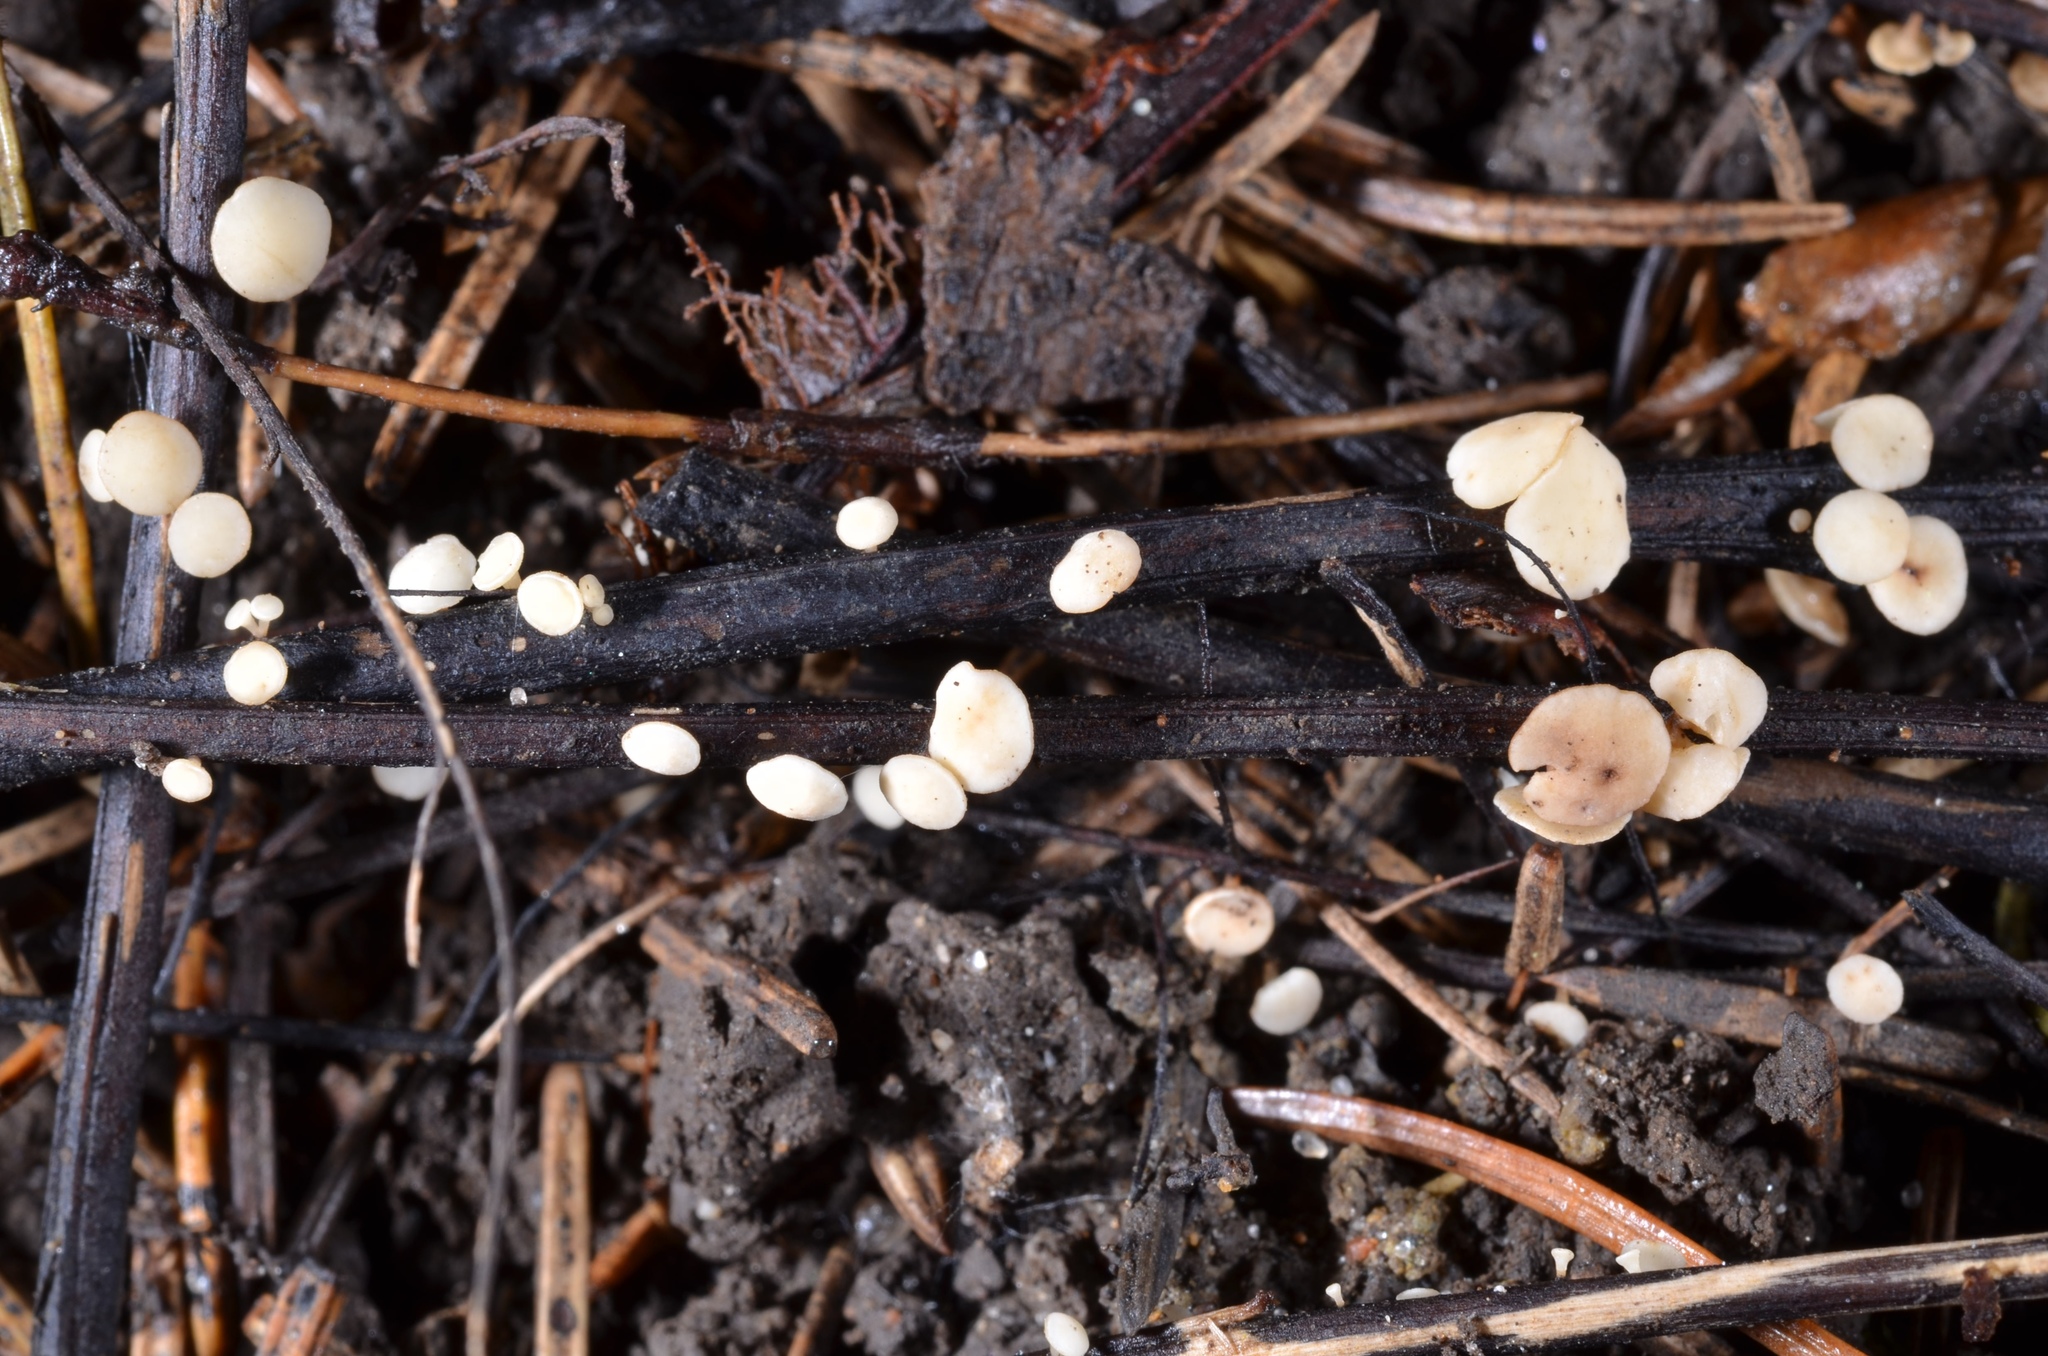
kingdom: Fungi
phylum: Ascomycota
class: Leotiomycetes
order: Helotiales
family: Helotiaceae
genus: Hymenoscyphus
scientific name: Hymenoscyphus albidus
